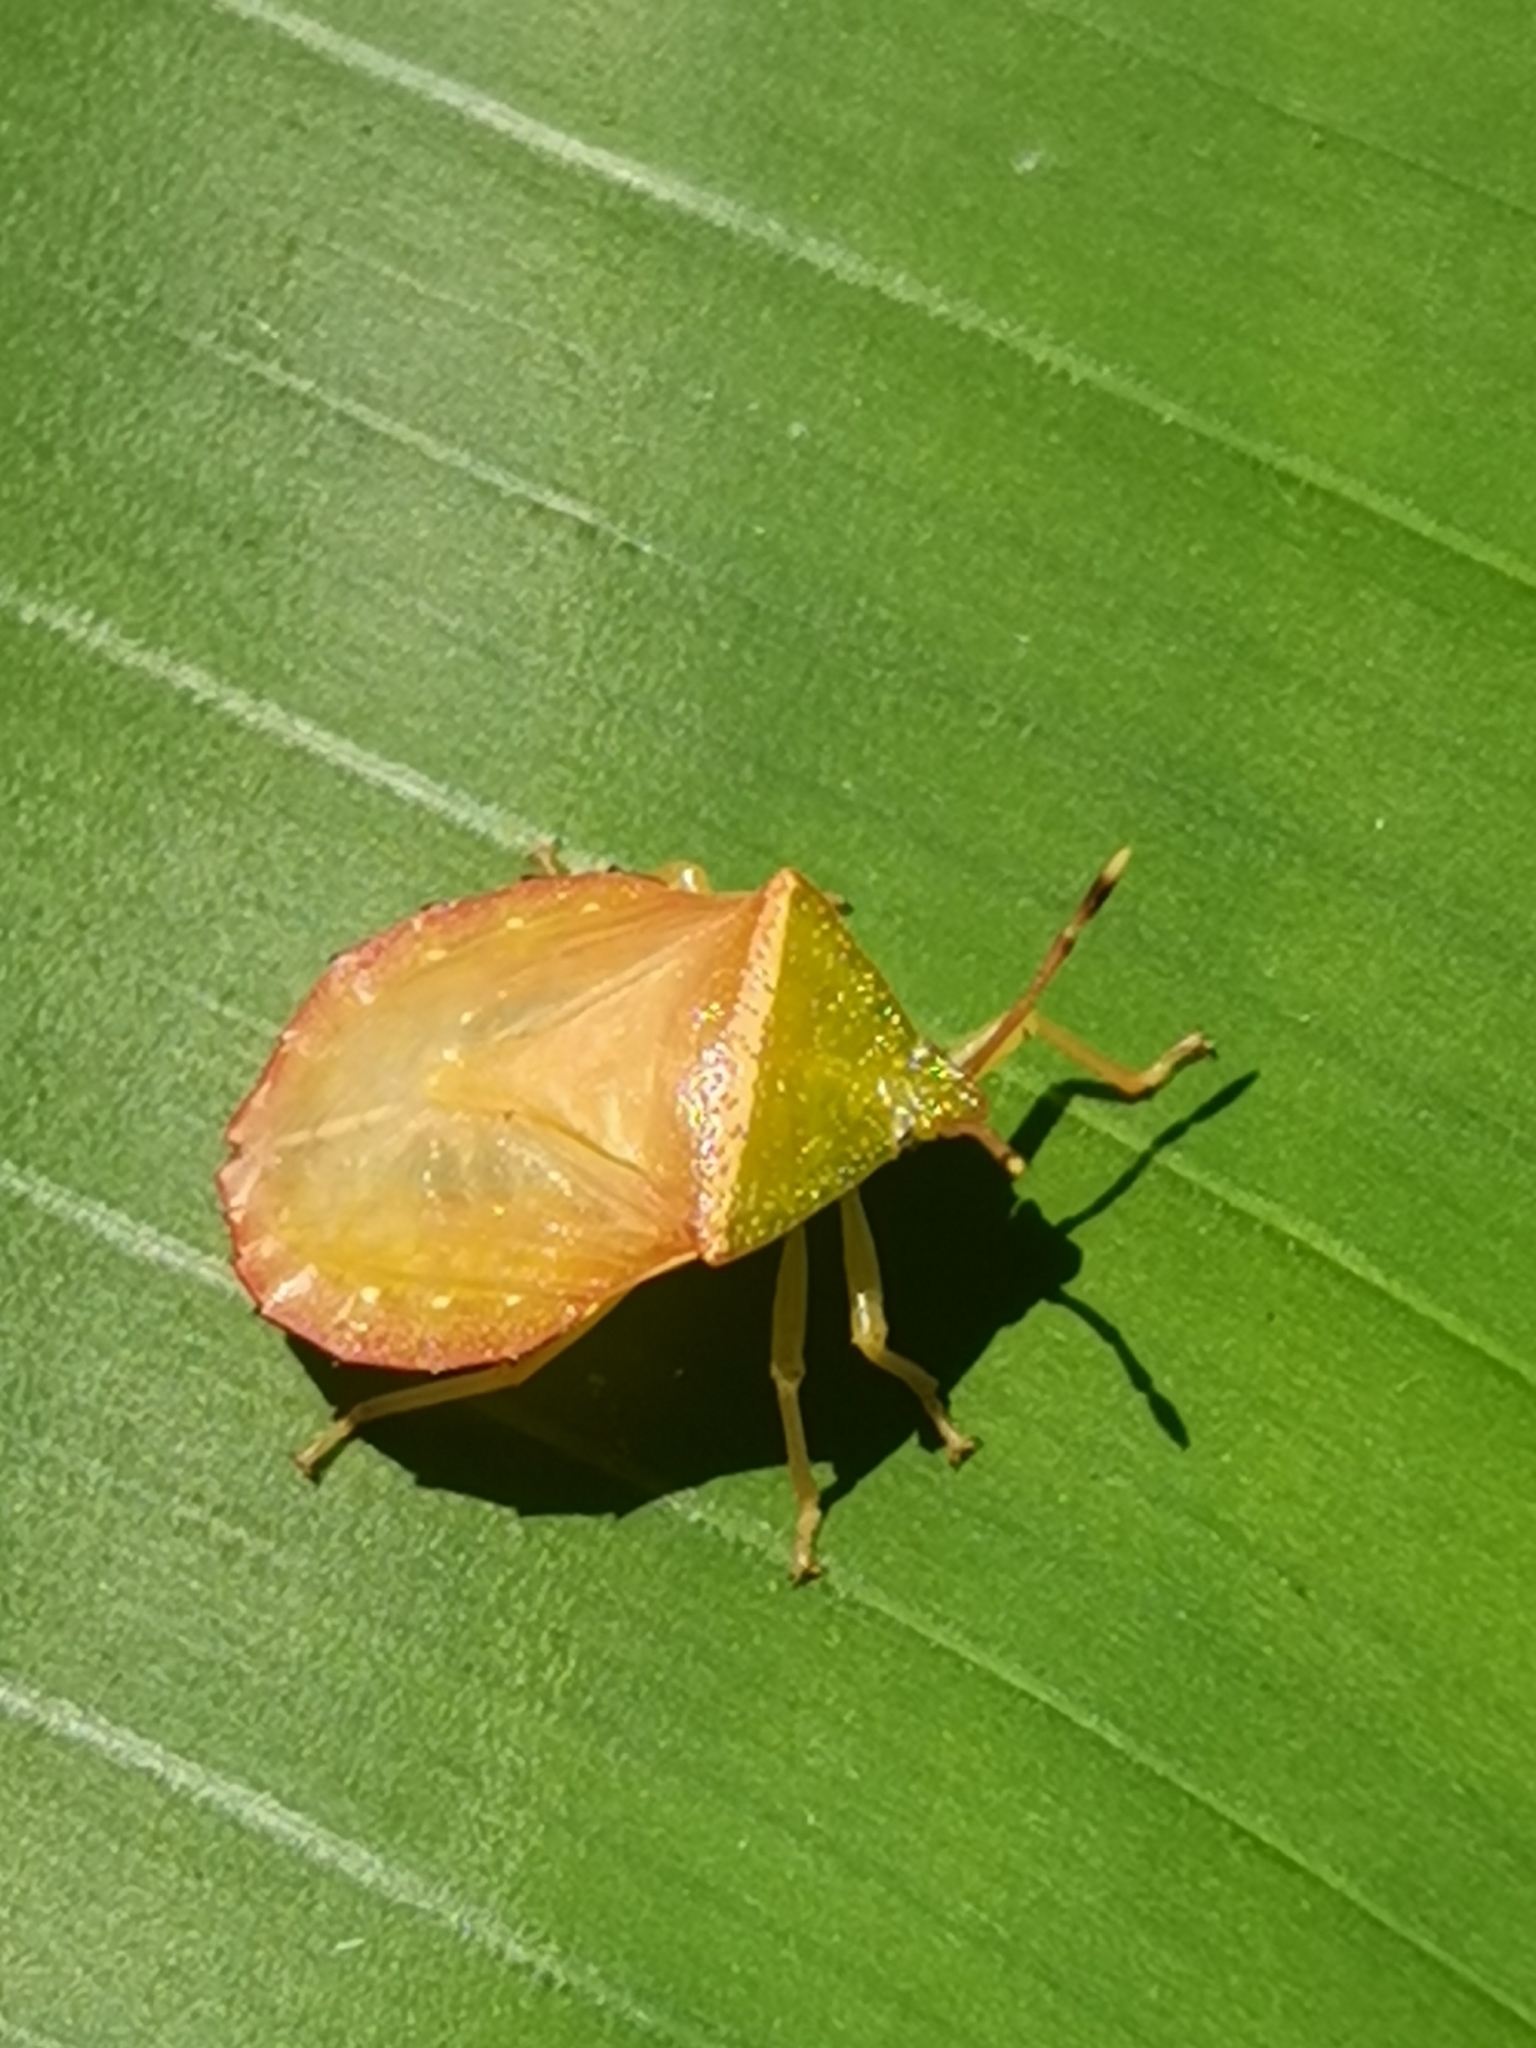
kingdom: Animalia
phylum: Arthropoda
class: Insecta
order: Hemiptera
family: Tessaratomidae
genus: Enada
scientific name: Enada rosea
